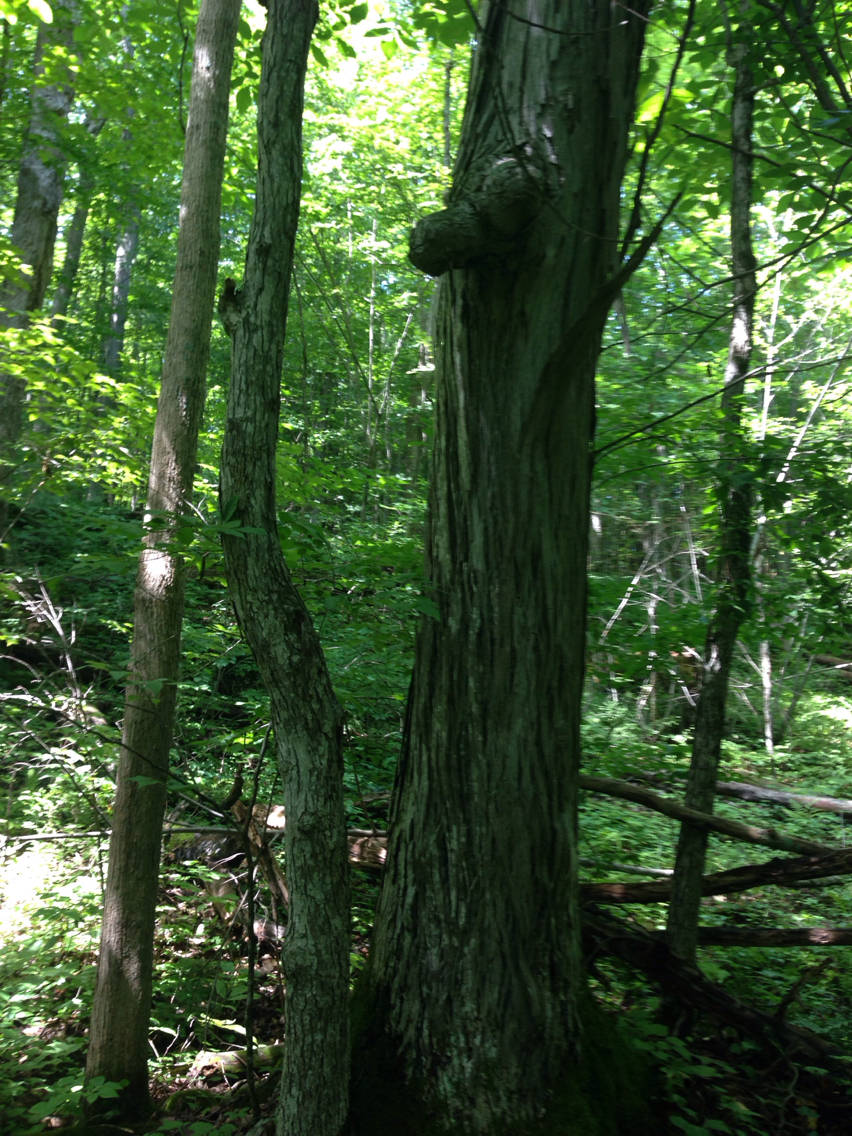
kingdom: Plantae
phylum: Tracheophyta
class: Magnoliopsida
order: Fagales
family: Juglandaceae
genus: Carya
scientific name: Carya ovata
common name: Shagbark hickory
